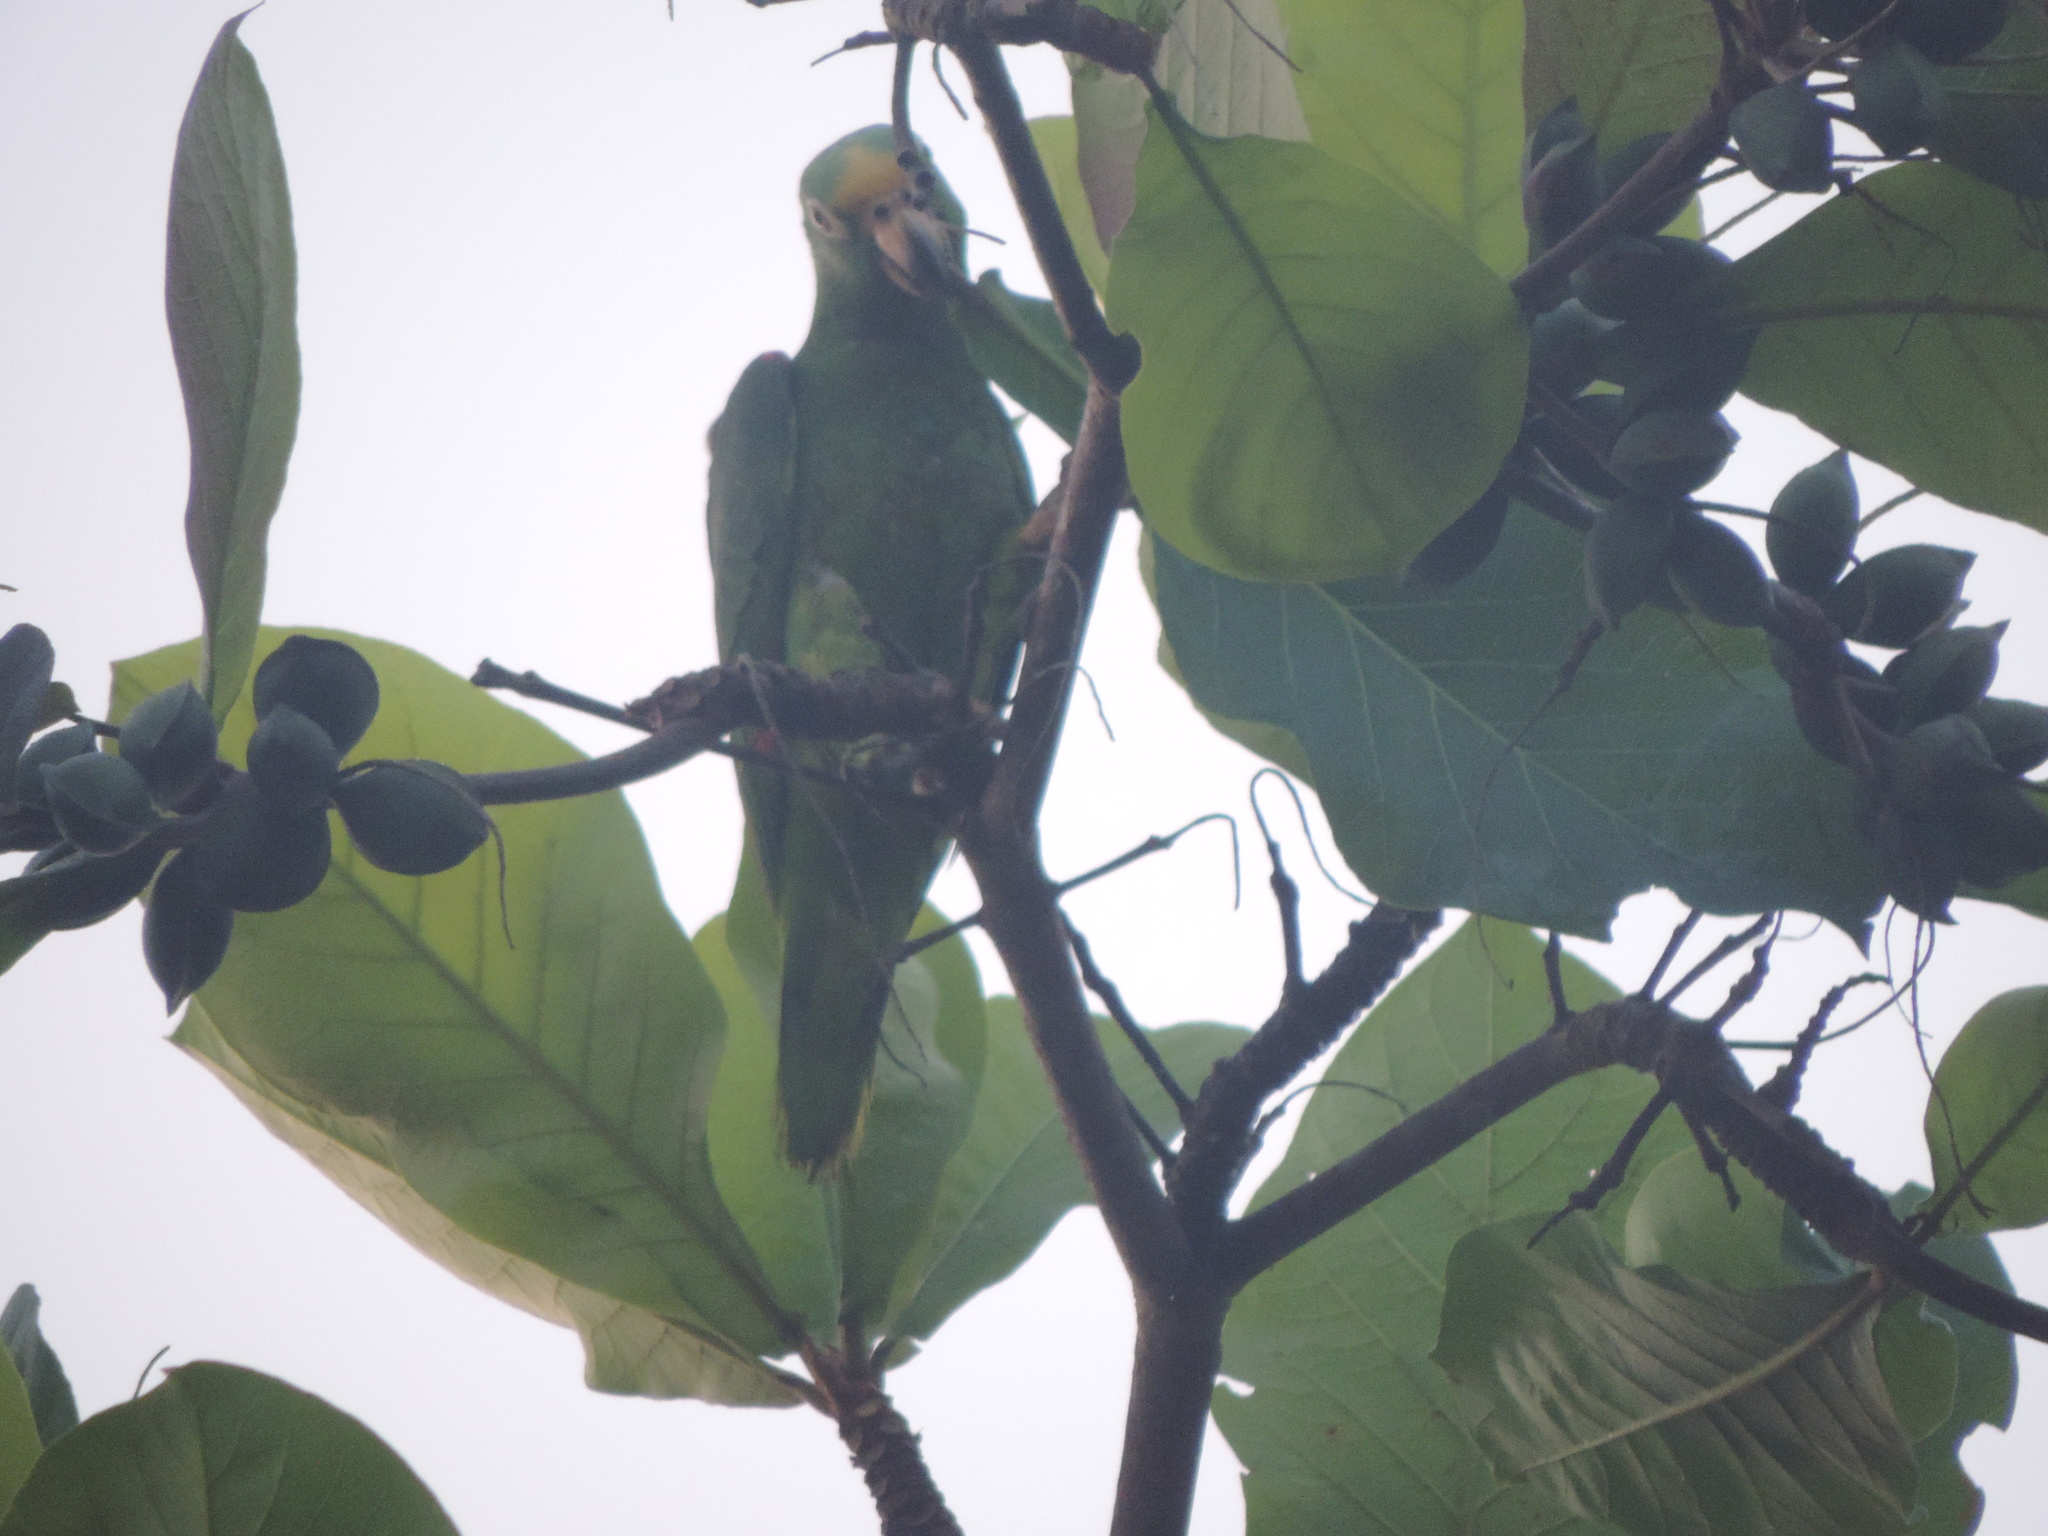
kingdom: Animalia
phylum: Chordata
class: Aves
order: Psittaciformes
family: Psittacidae
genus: Amazona
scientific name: Amazona ochrocephala
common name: Yellow-crowned amazon
